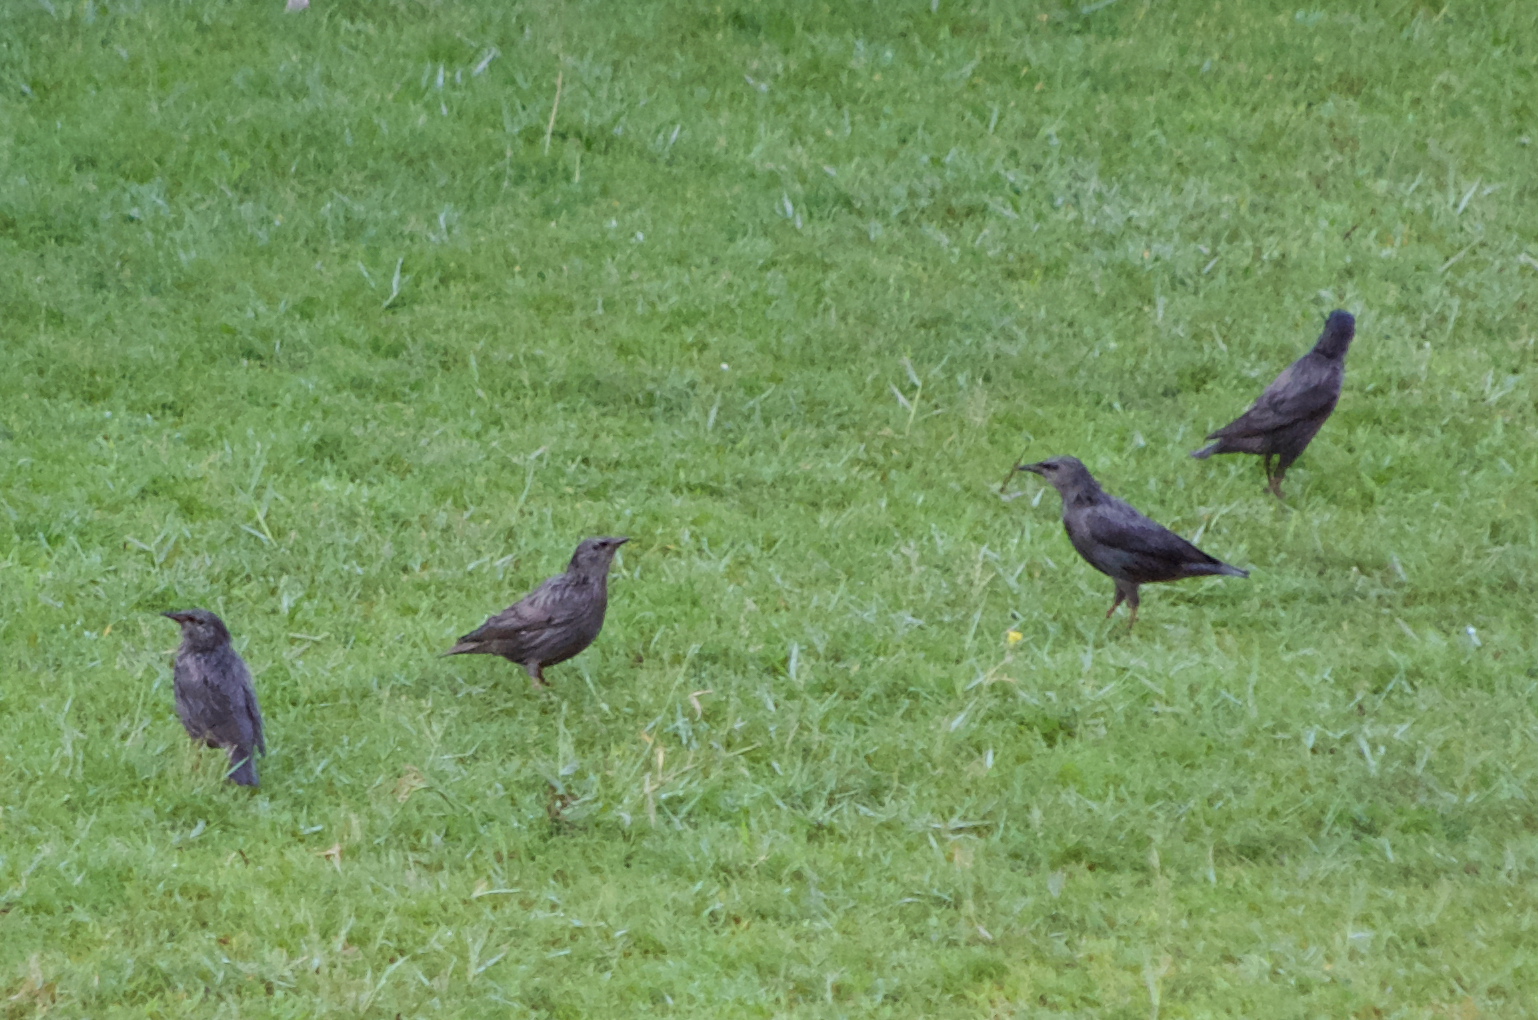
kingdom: Animalia
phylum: Chordata
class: Aves
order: Passeriformes
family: Sturnidae
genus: Sturnus
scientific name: Sturnus unicolor
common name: Spotless starling
